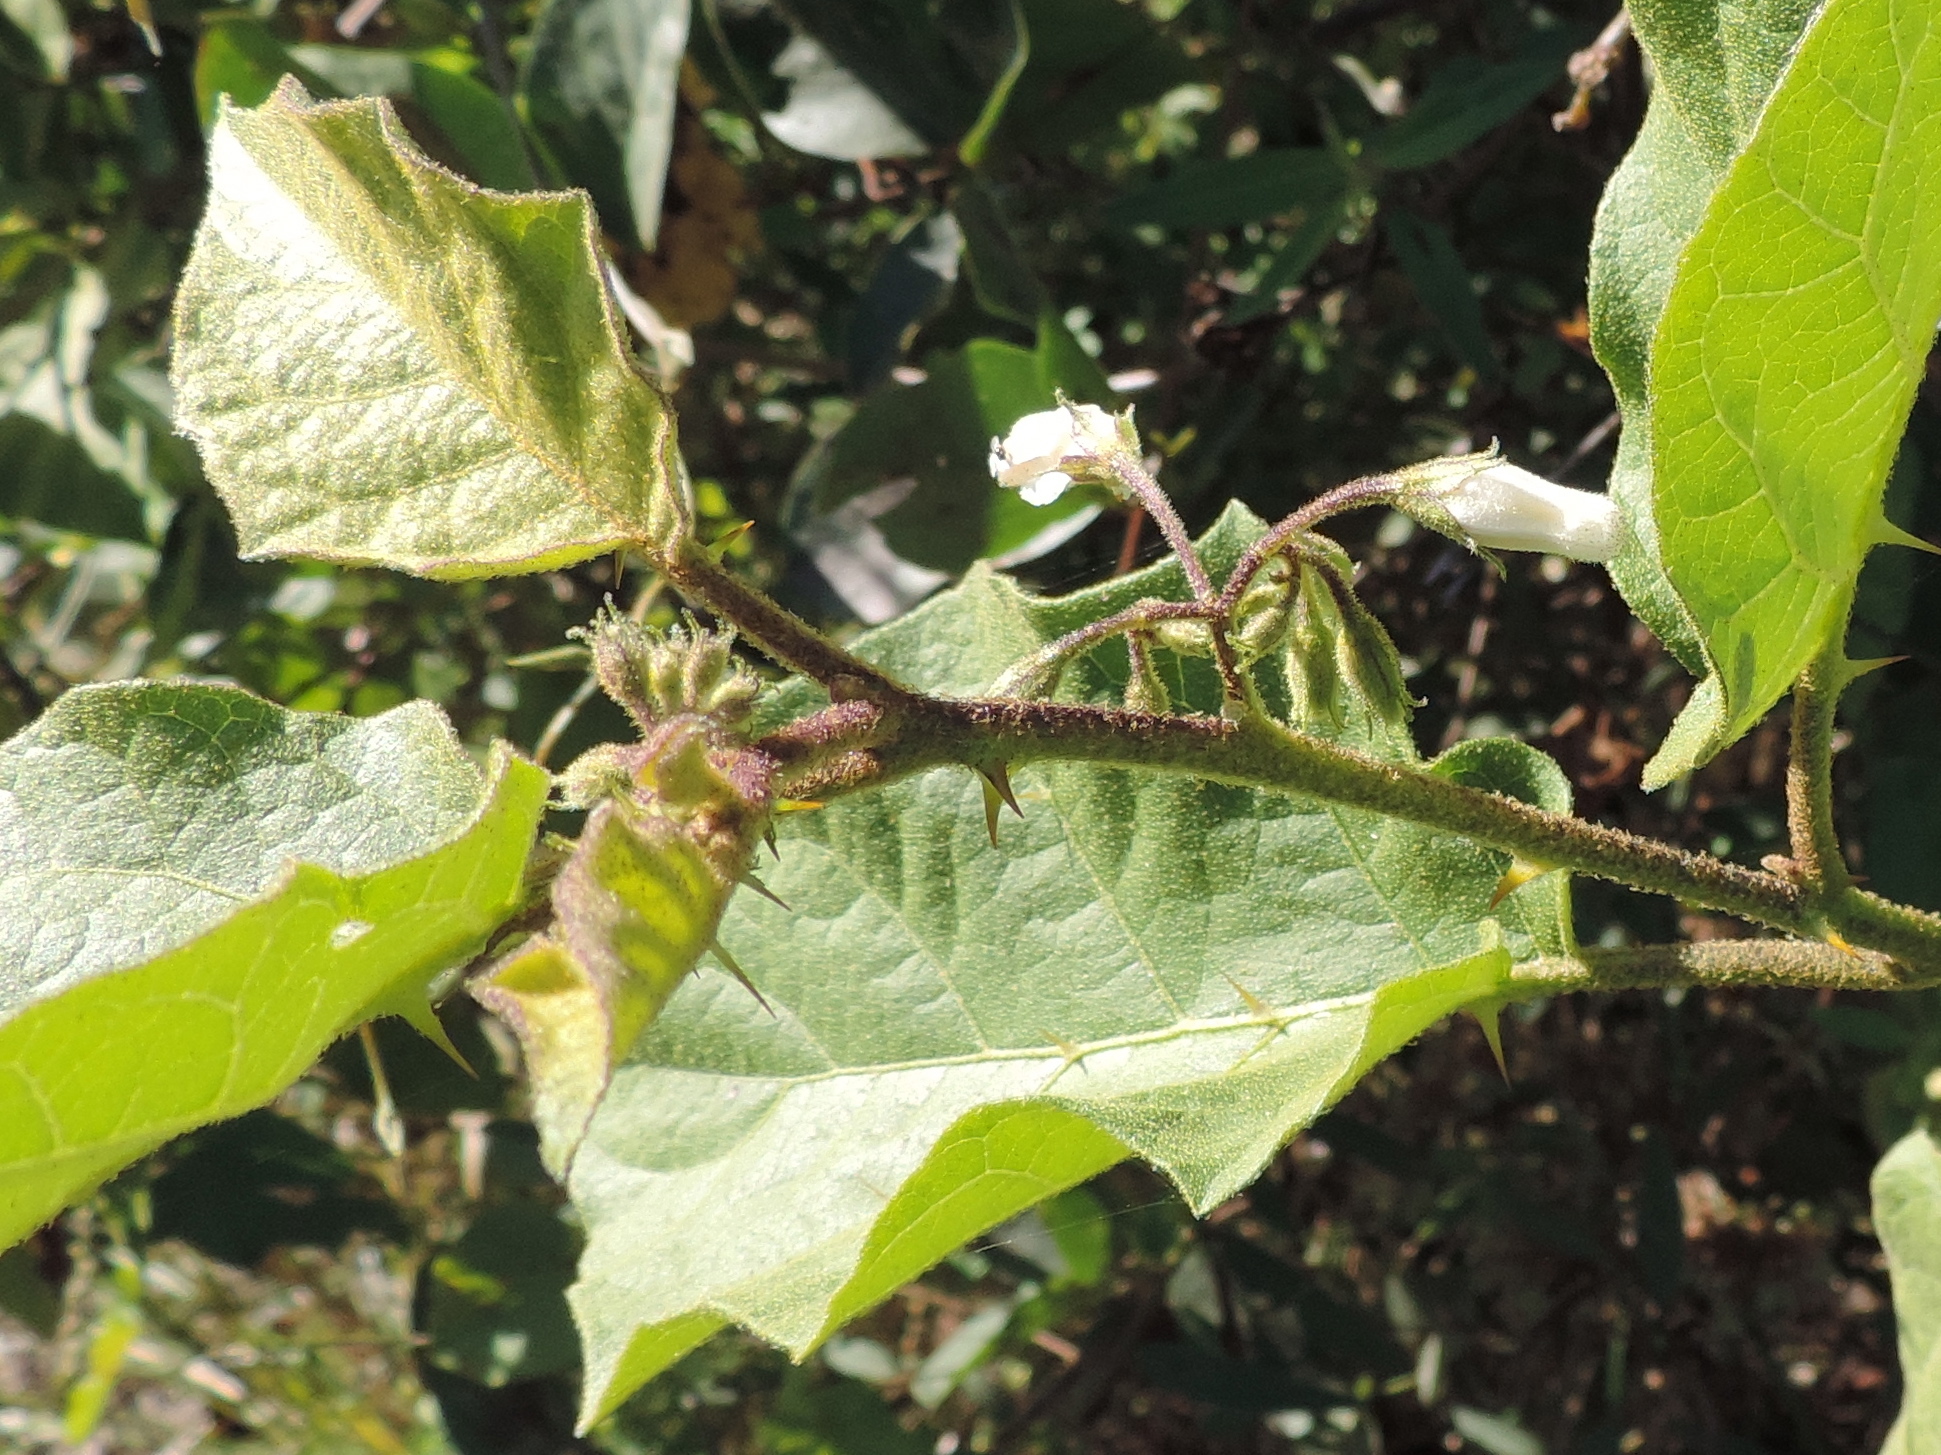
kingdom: Plantae
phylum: Tracheophyta
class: Magnoliopsida
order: Solanales
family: Solanaceae
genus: Solanum
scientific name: Solanum ferrugineum
